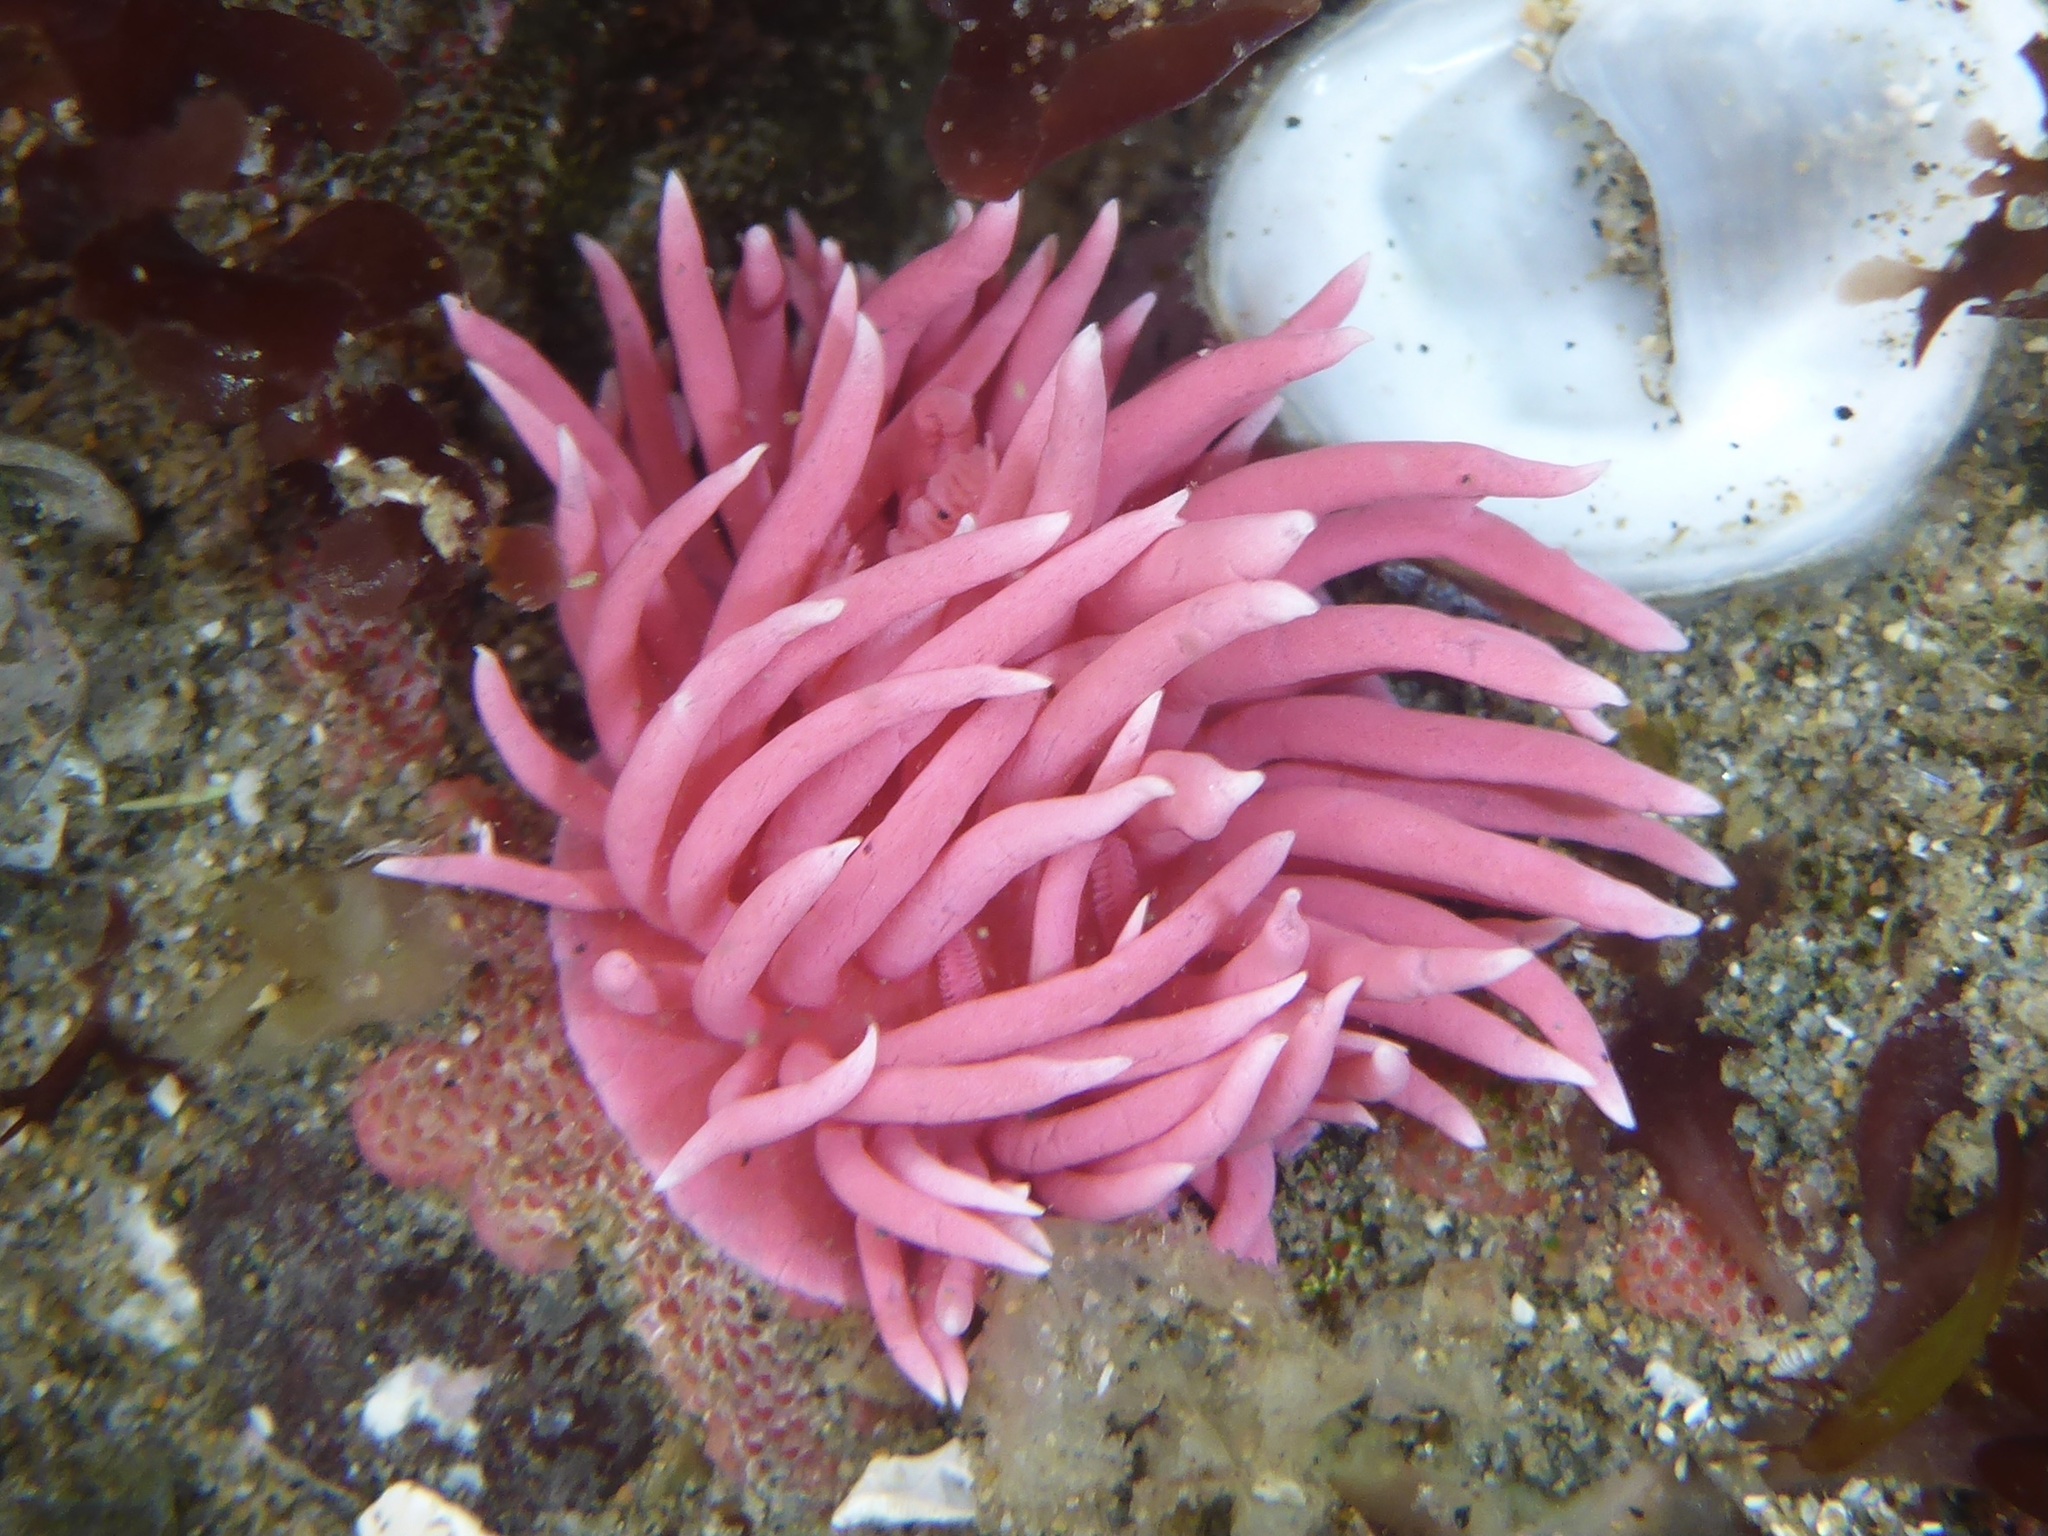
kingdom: Animalia
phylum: Mollusca
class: Gastropoda
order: Nudibranchia
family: Goniodorididae
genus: Okenia
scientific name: Okenia
